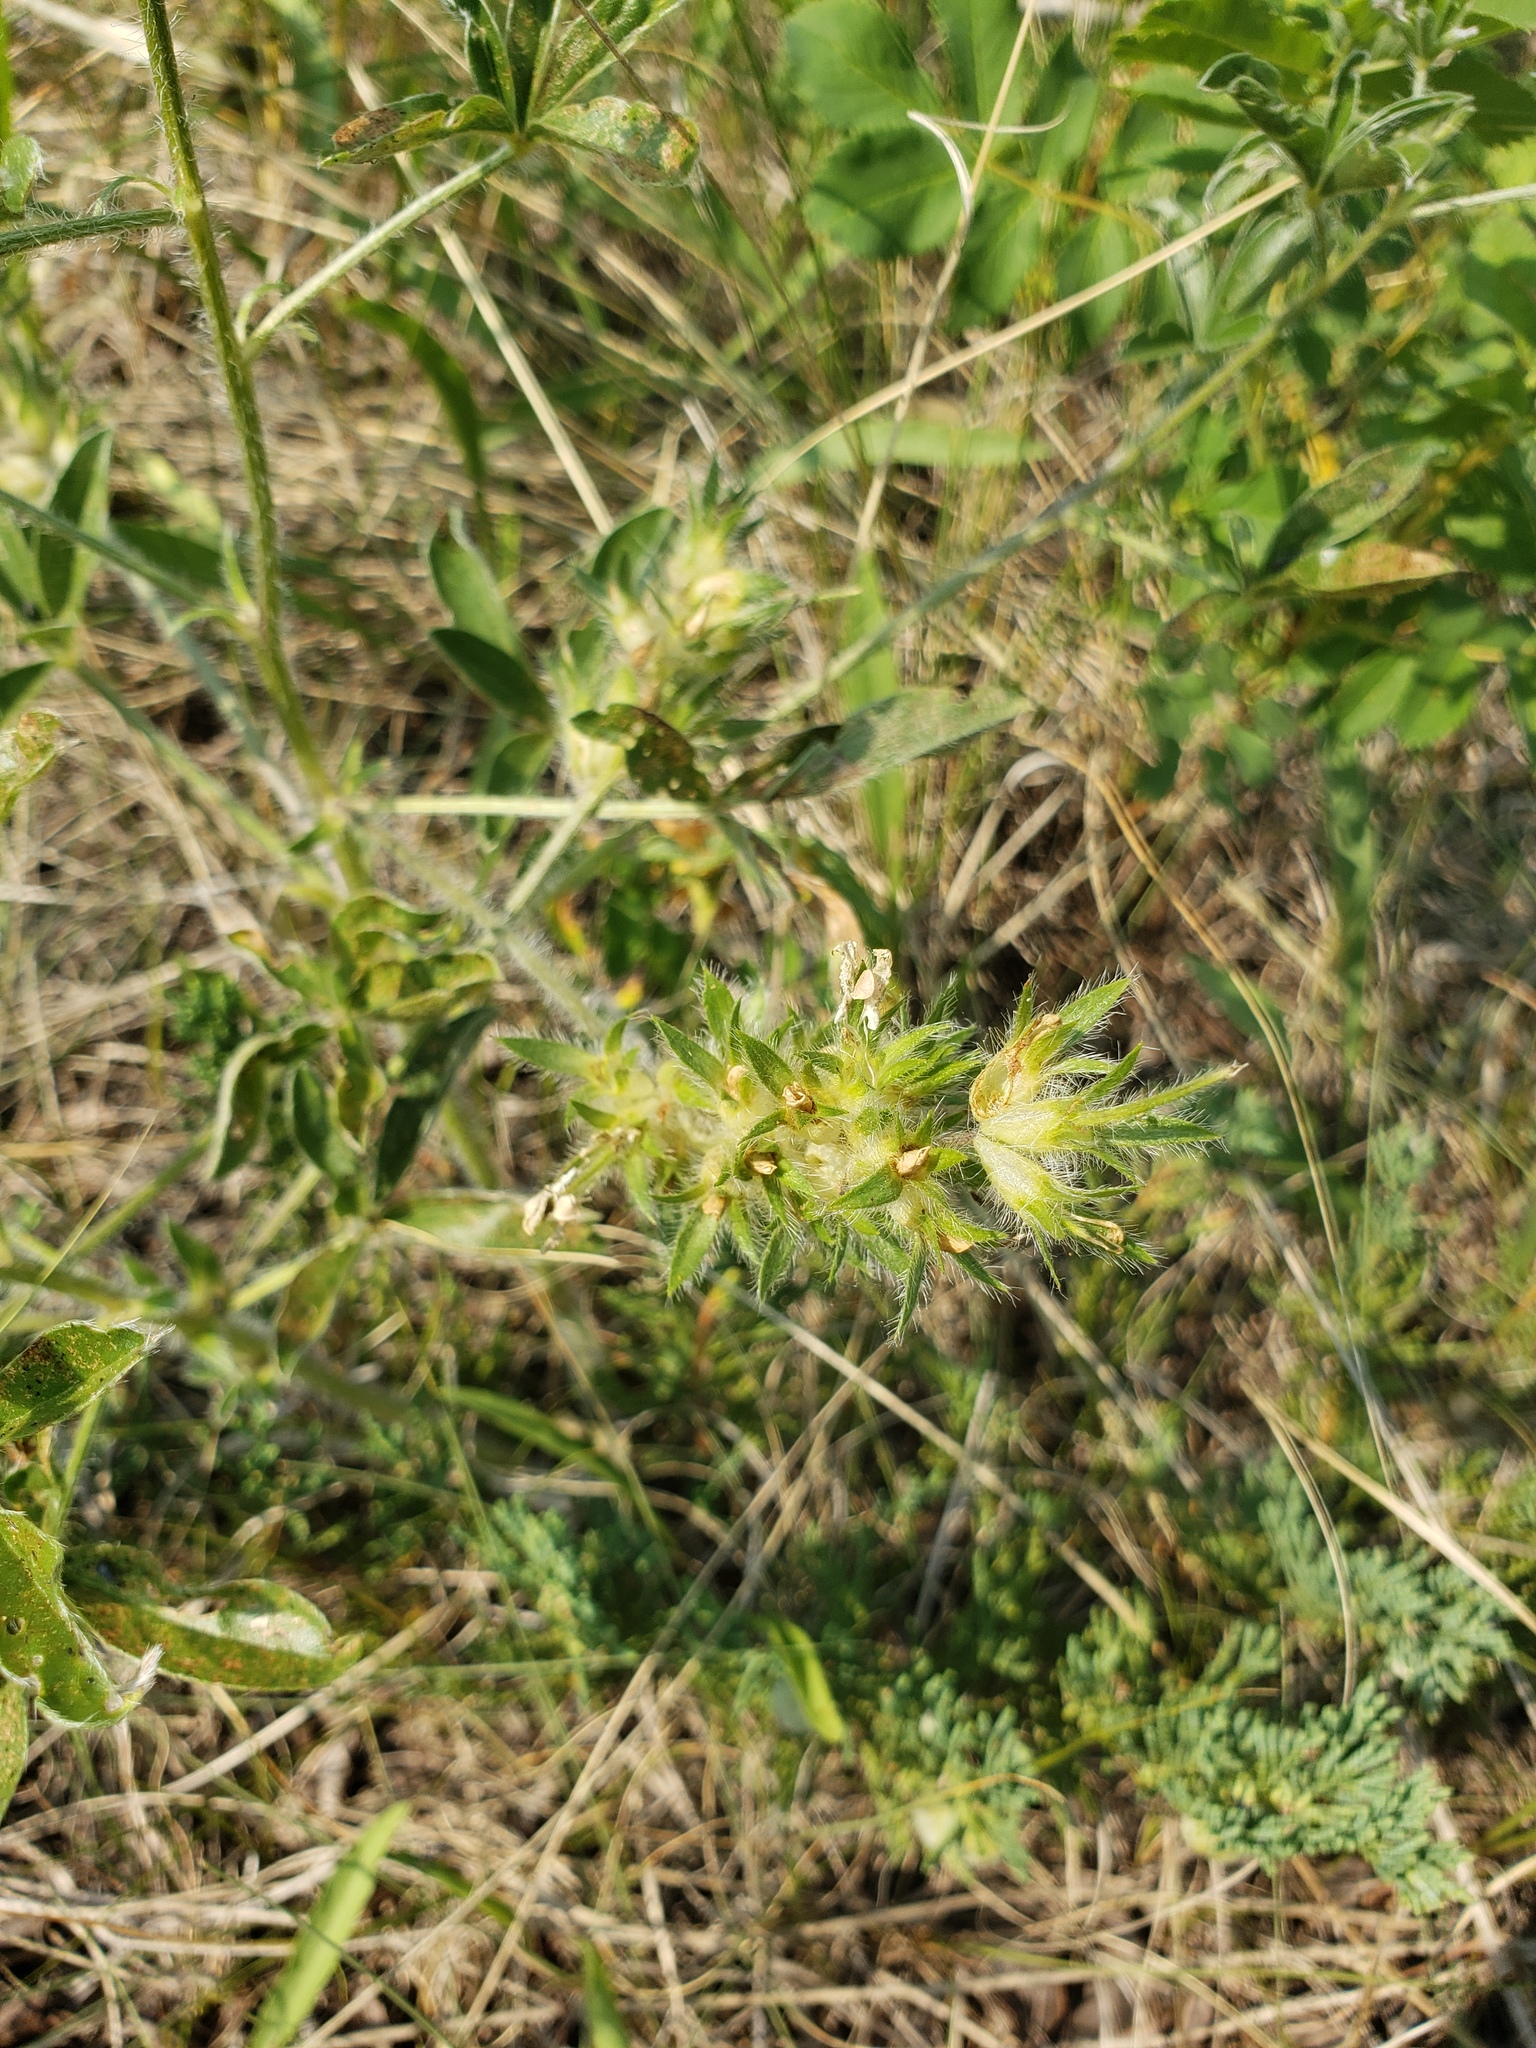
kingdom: Plantae
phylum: Tracheophyta
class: Magnoliopsida
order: Fabales
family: Fabaceae
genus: Pediomelum
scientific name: Pediomelum esculentum
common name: Indian-turnip
